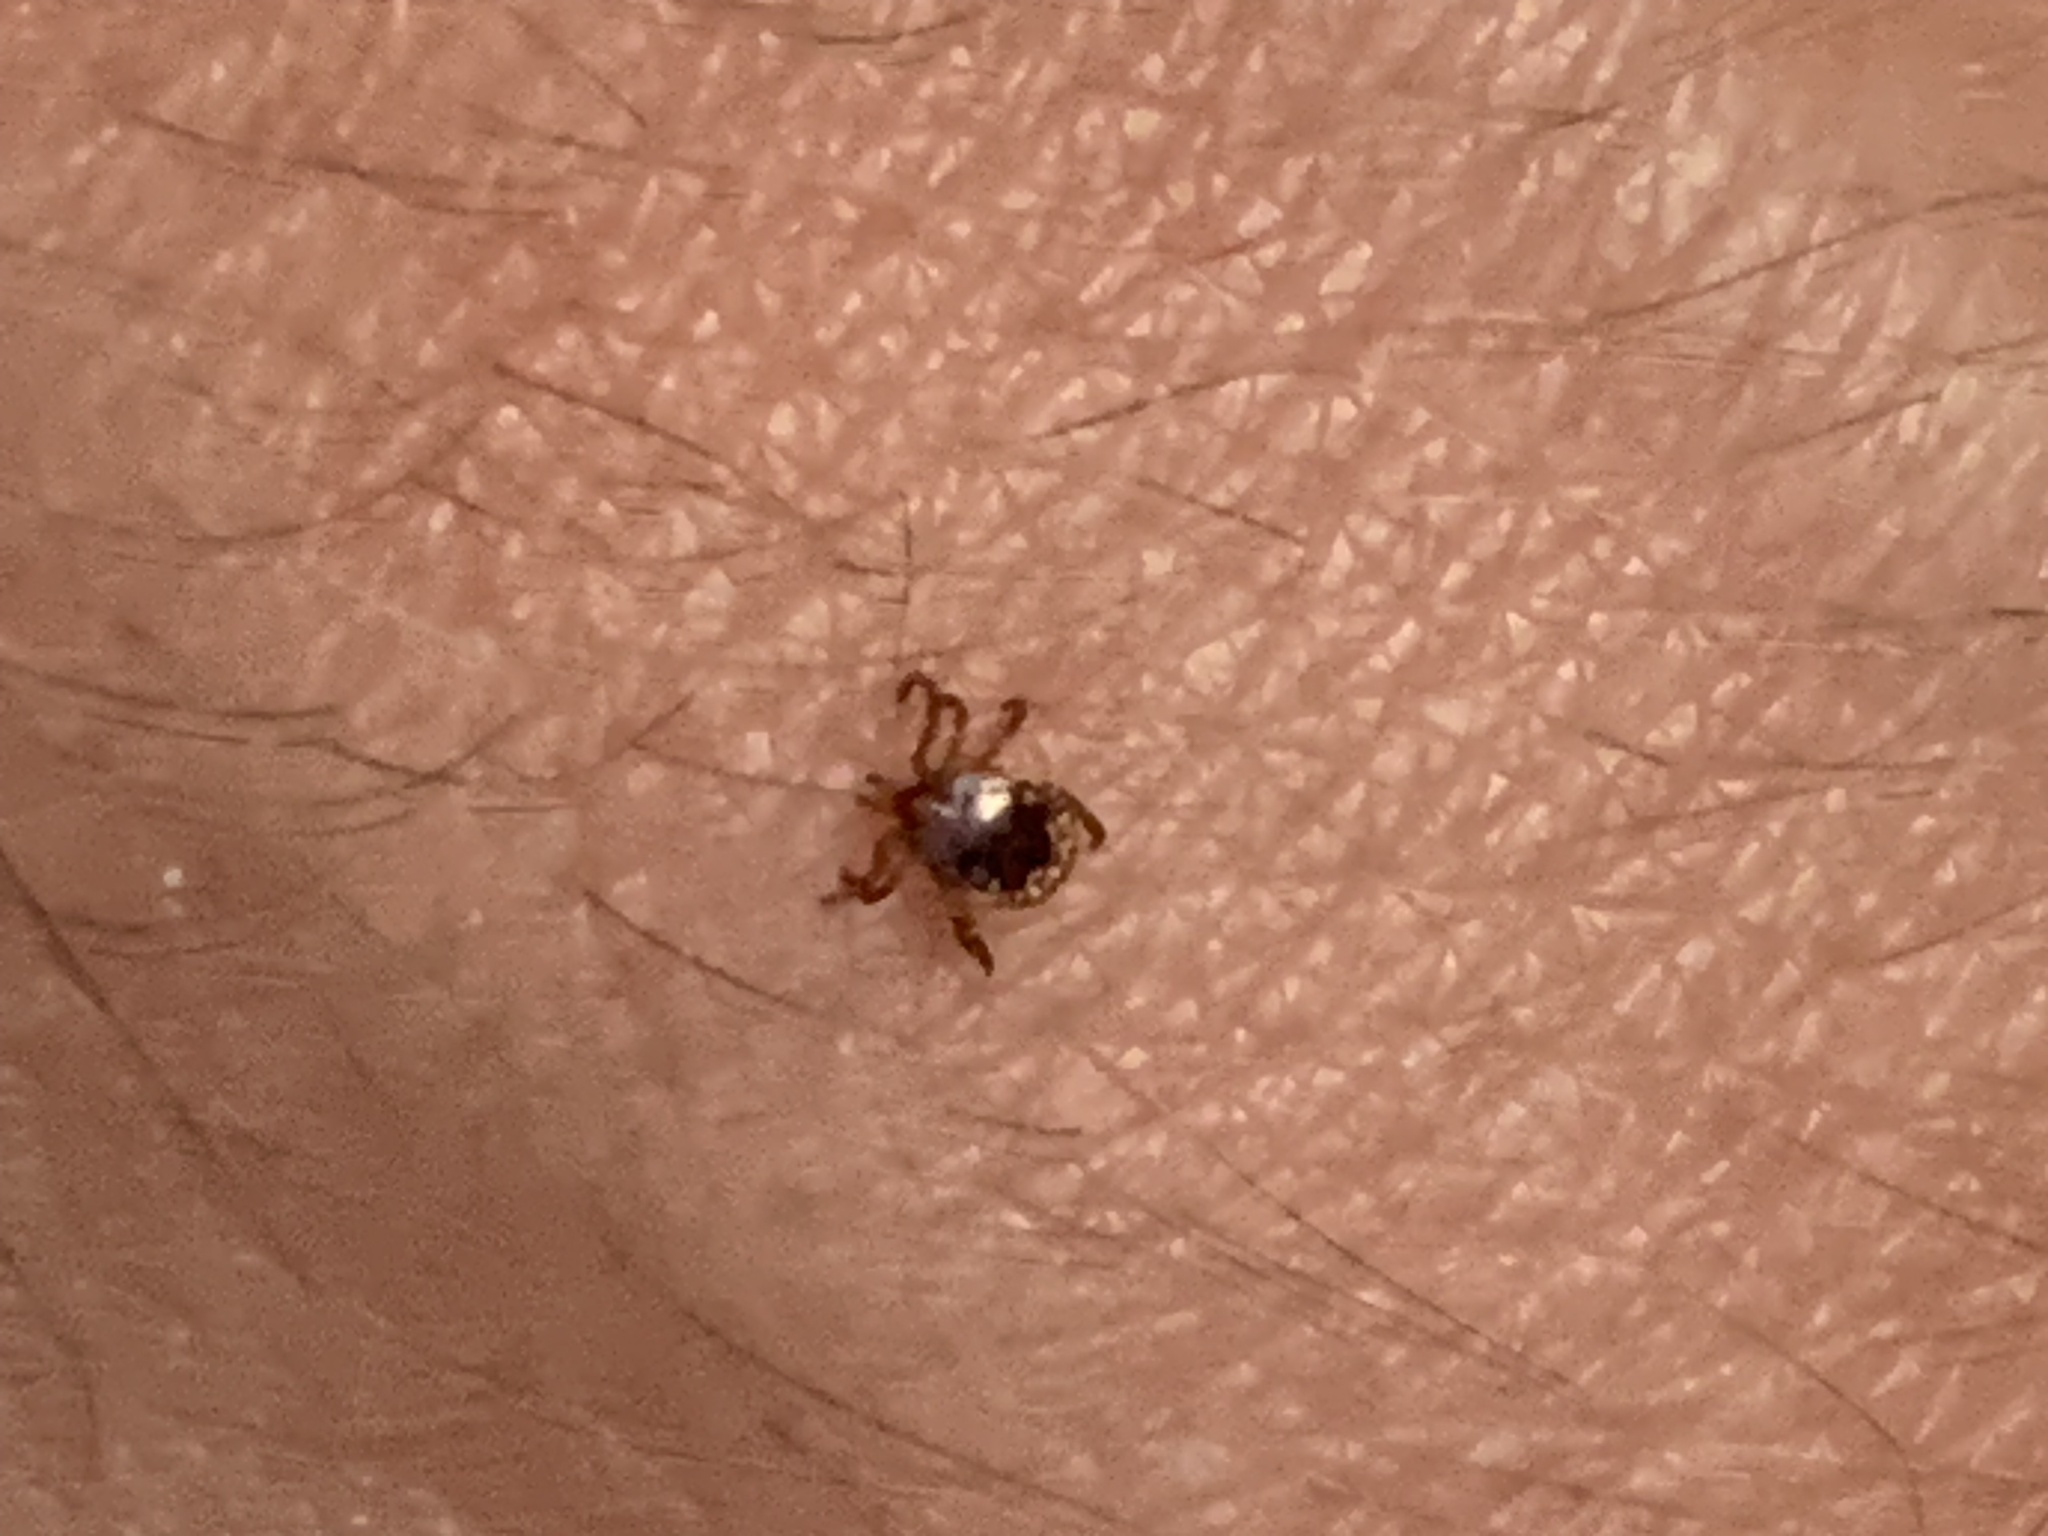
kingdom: Animalia
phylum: Arthropoda
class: Arachnida
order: Ixodida
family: Ixodidae
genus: Amblyomma
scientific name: Amblyomma americanum
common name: Lone star tick
